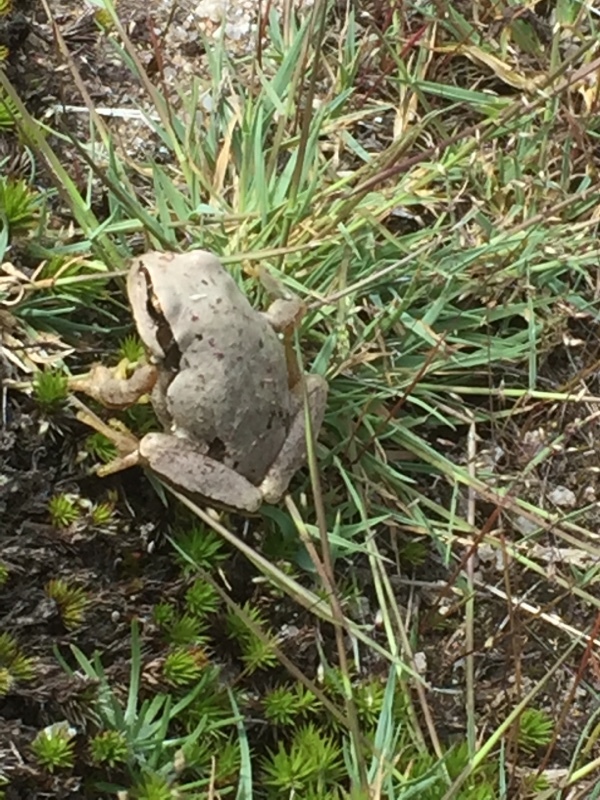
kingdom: Animalia
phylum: Chordata
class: Amphibia
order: Anura
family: Hylidae
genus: Hyla
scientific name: Hyla molleri
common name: Iberian tree frog
